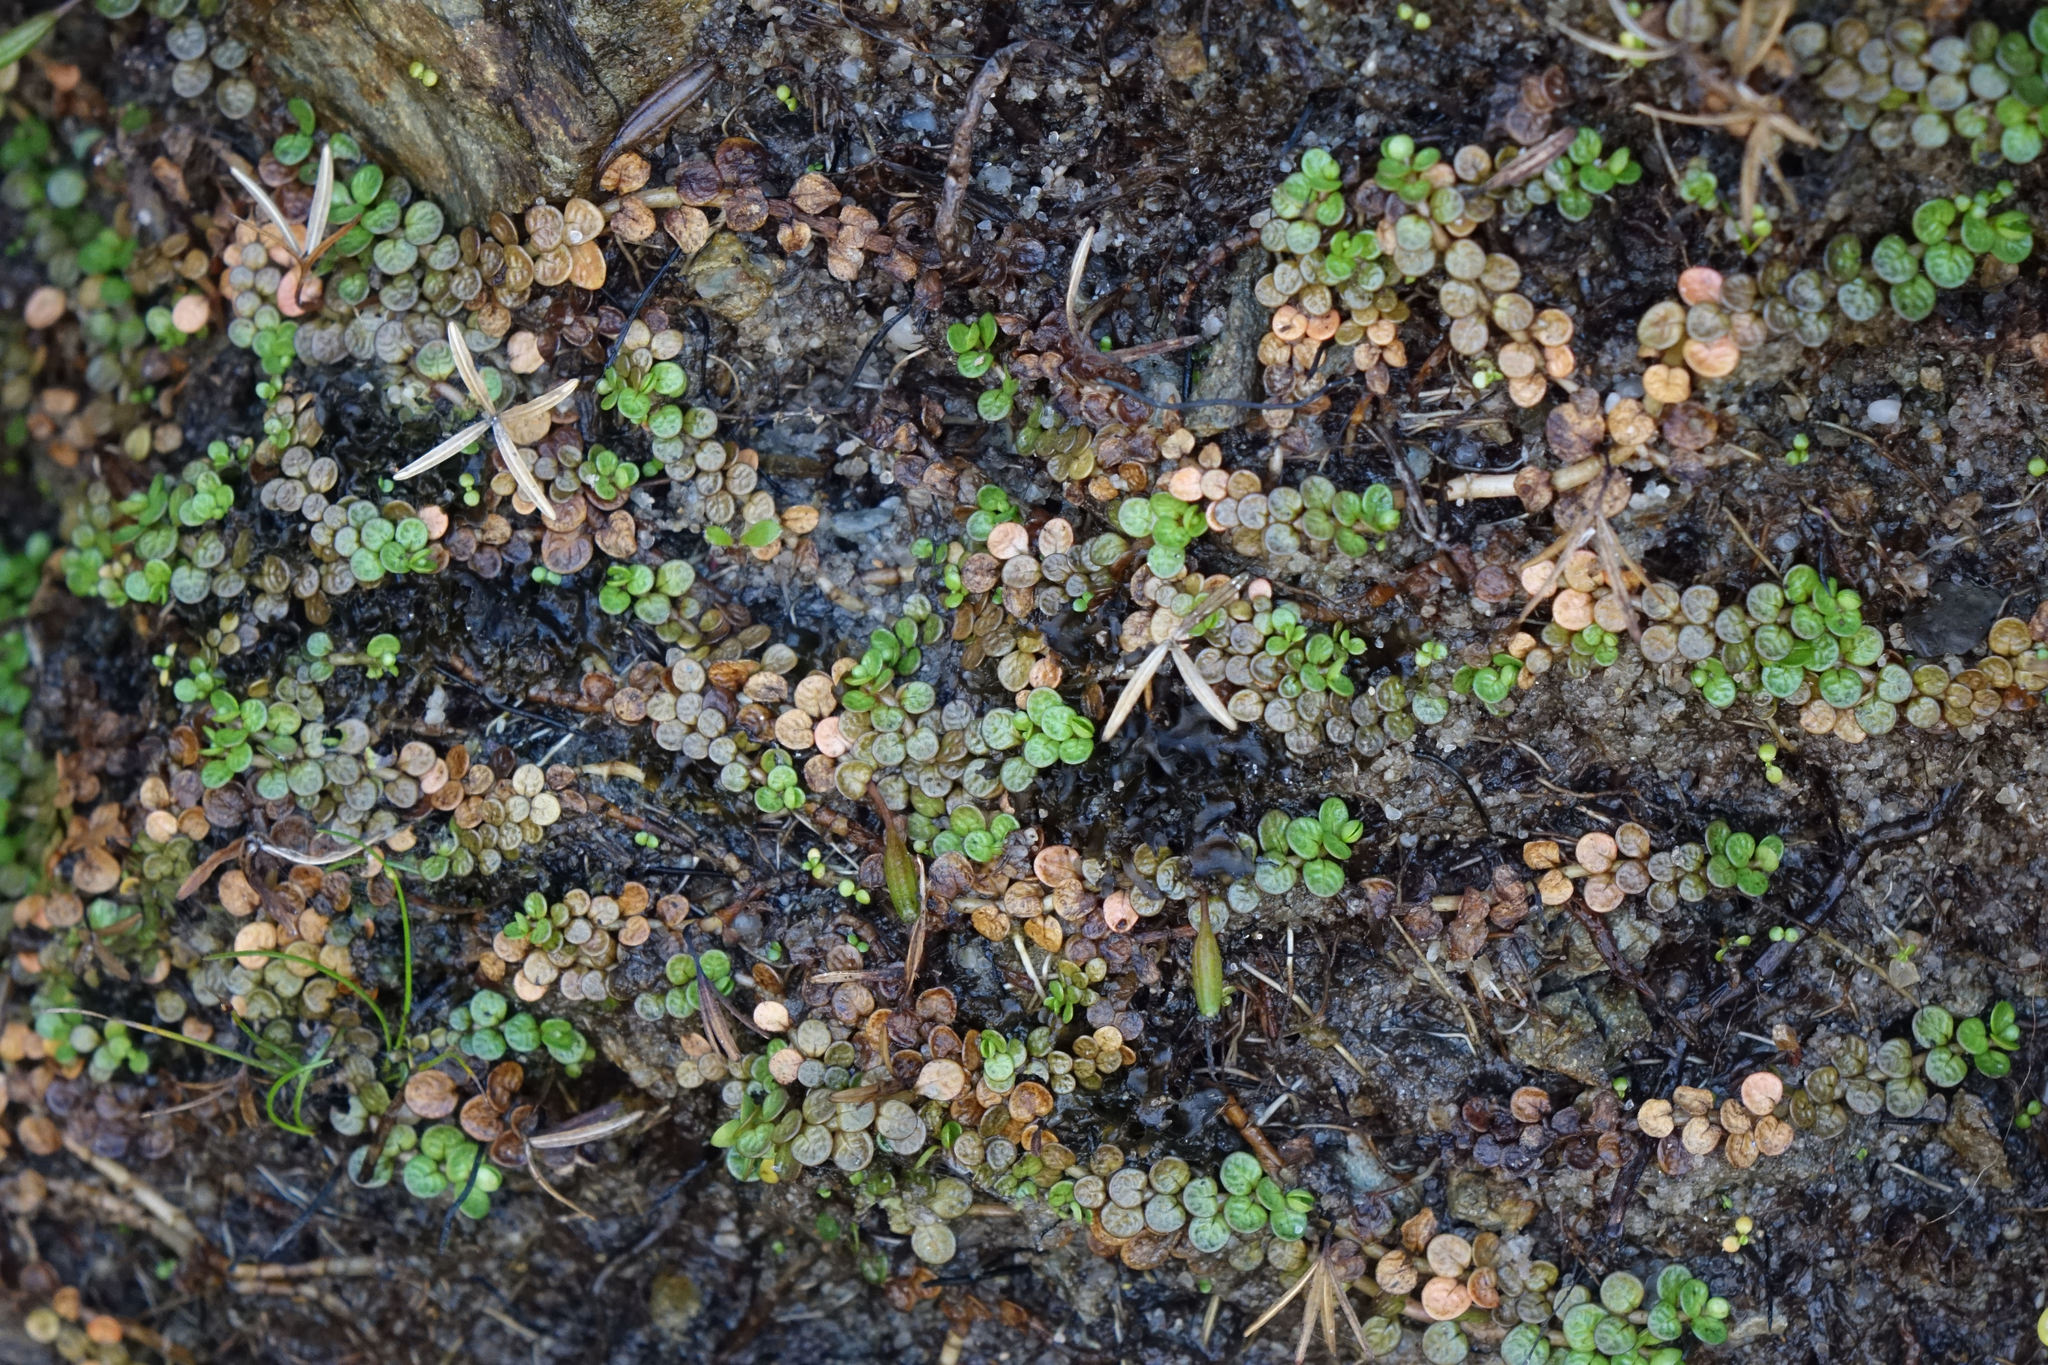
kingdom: Plantae
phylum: Tracheophyta
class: Magnoliopsida
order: Myrtales
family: Onagraceae
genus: Epilobium
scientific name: Epilobium komarovianum
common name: Bronzy willowherb
